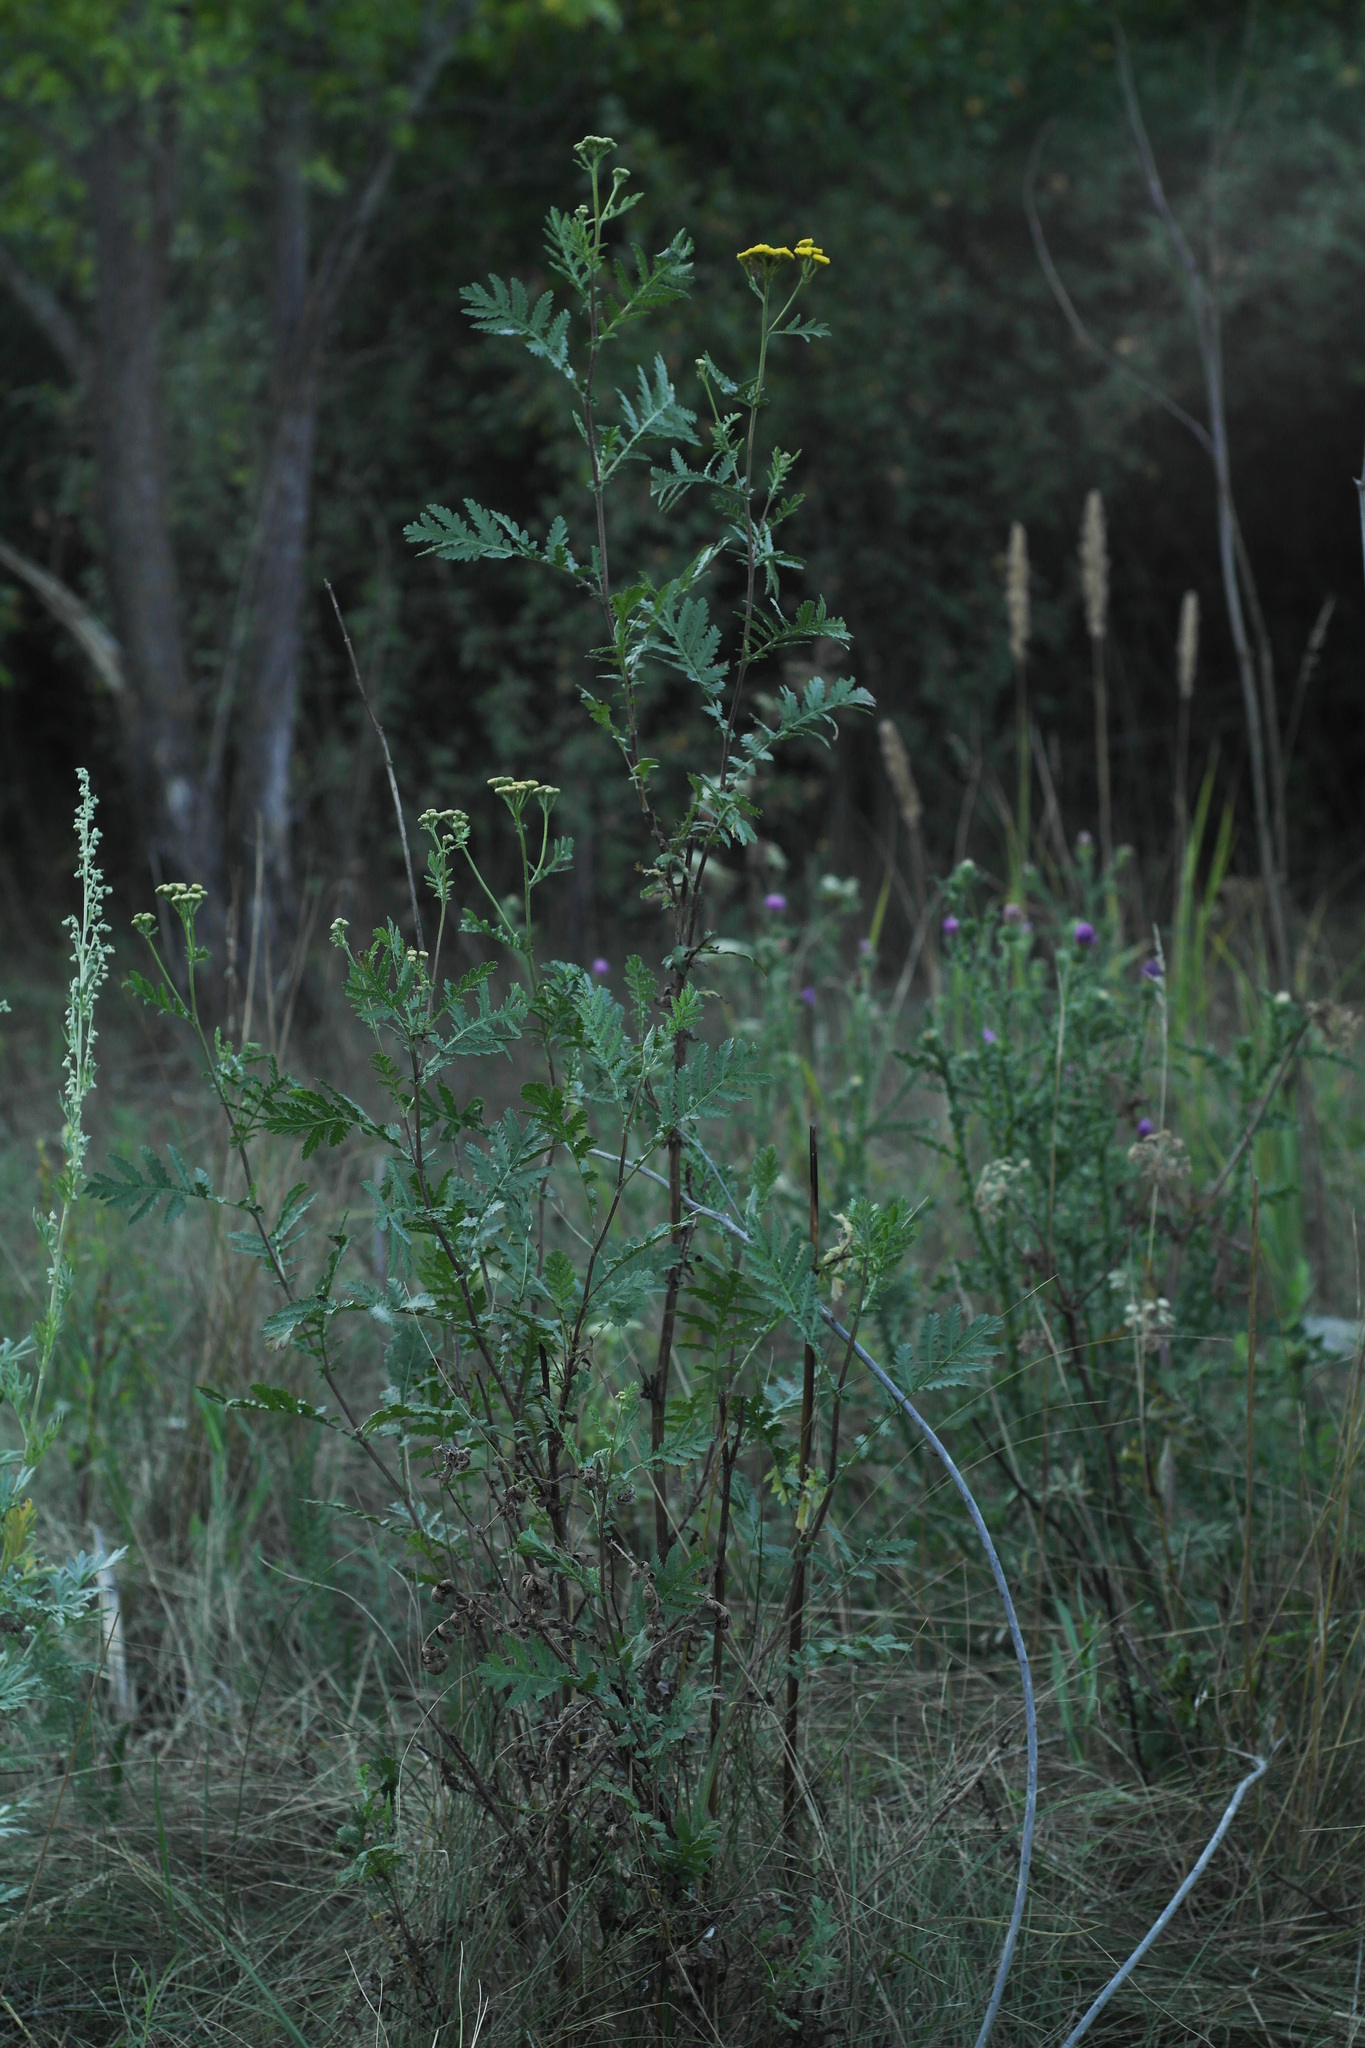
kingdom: Plantae
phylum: Tracheophyta
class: Magnoliopsida
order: Asterales
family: Asteraceae
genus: Tanacetum
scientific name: Tanacetum vulgare
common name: Common tansy
